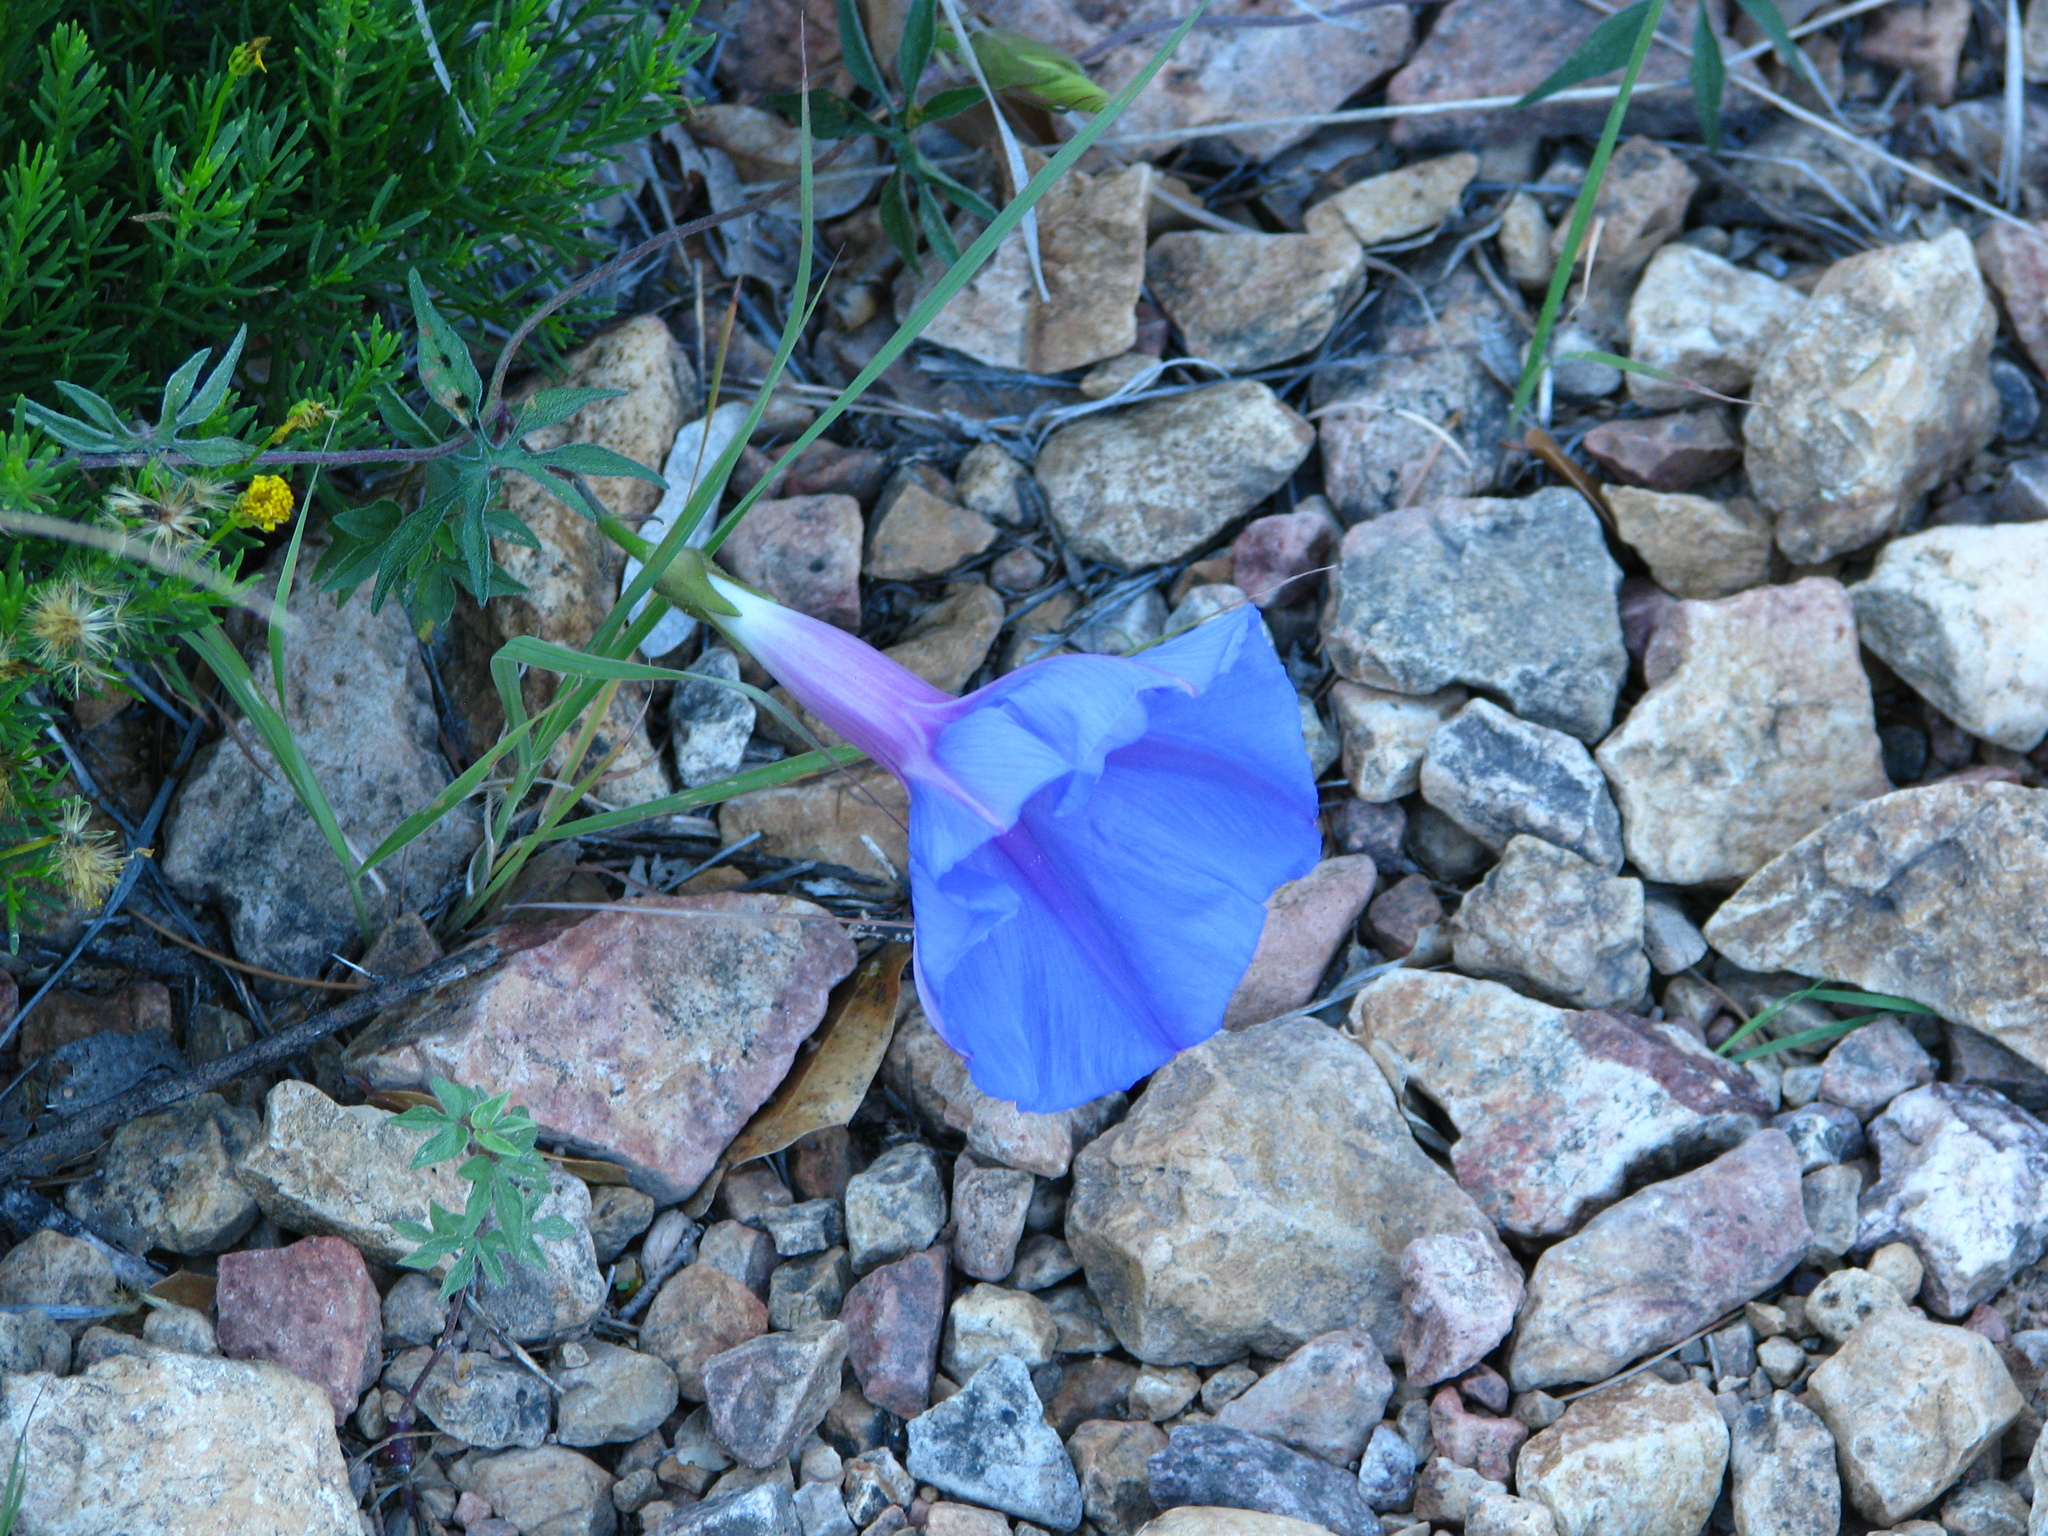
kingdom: Plantae
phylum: Tracheophyta
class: Magnoliopsida
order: Solanales
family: Convolvulaceae
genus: Ipomoea
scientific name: Ipomoea pubescens
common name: Silky morning-glory
